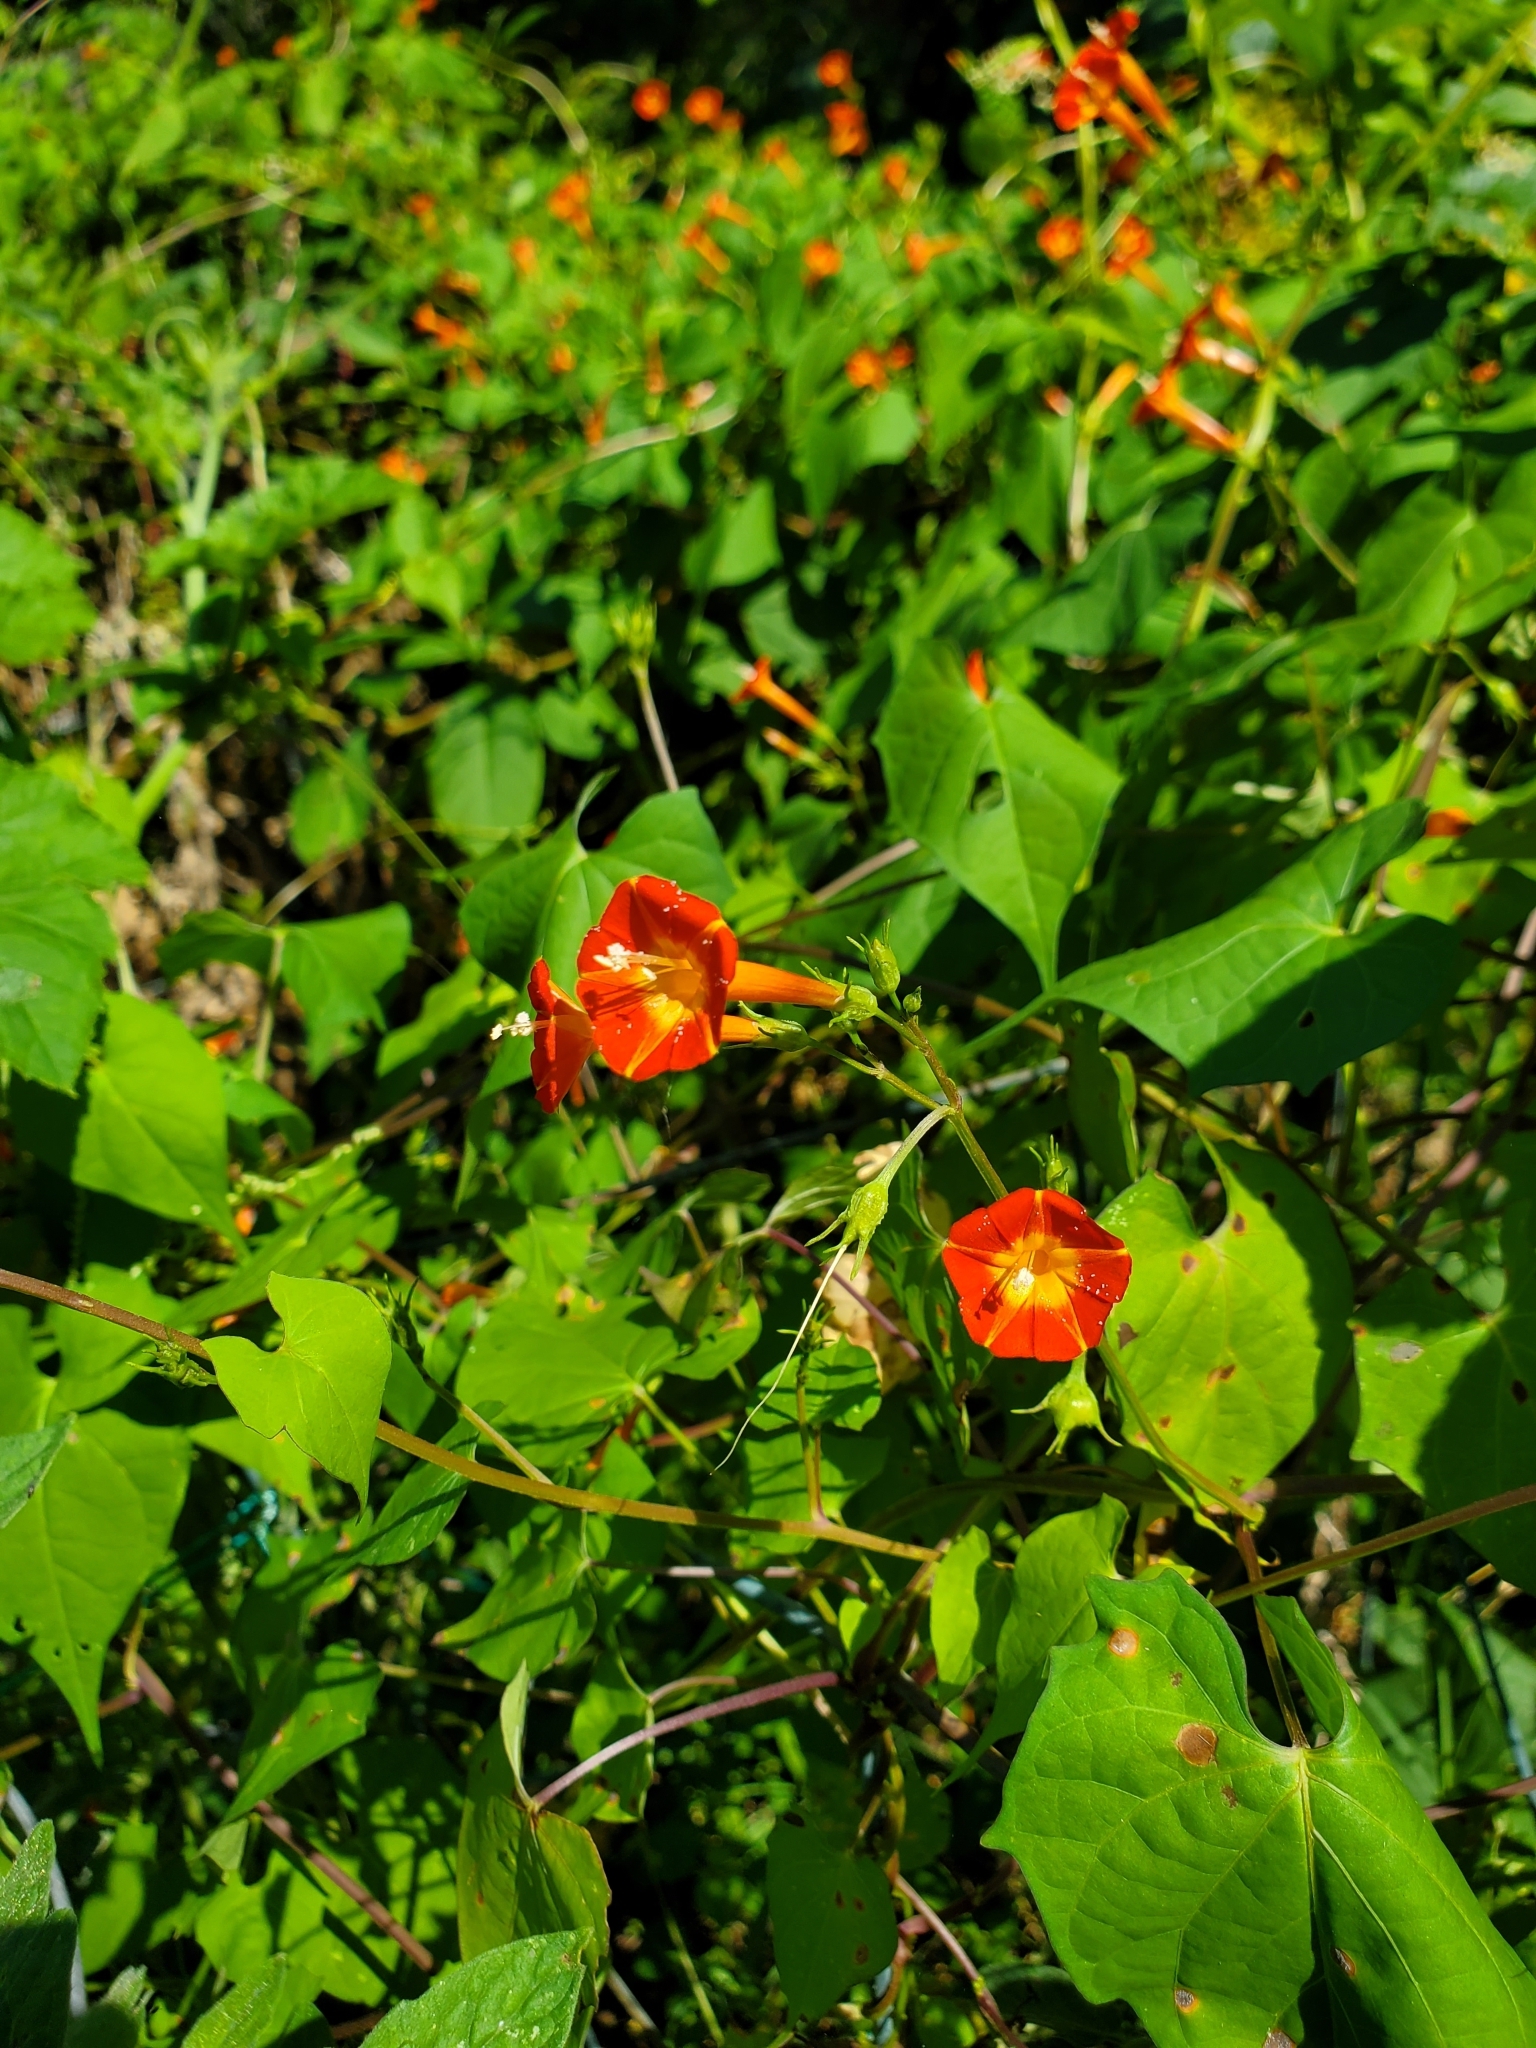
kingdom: Plantae
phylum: Tracheophyta
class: Magnoliopsida
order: Solanales
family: Convolvulaceae
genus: Ipomoea
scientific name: Ipomoea coccinea
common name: Red morning-glory
